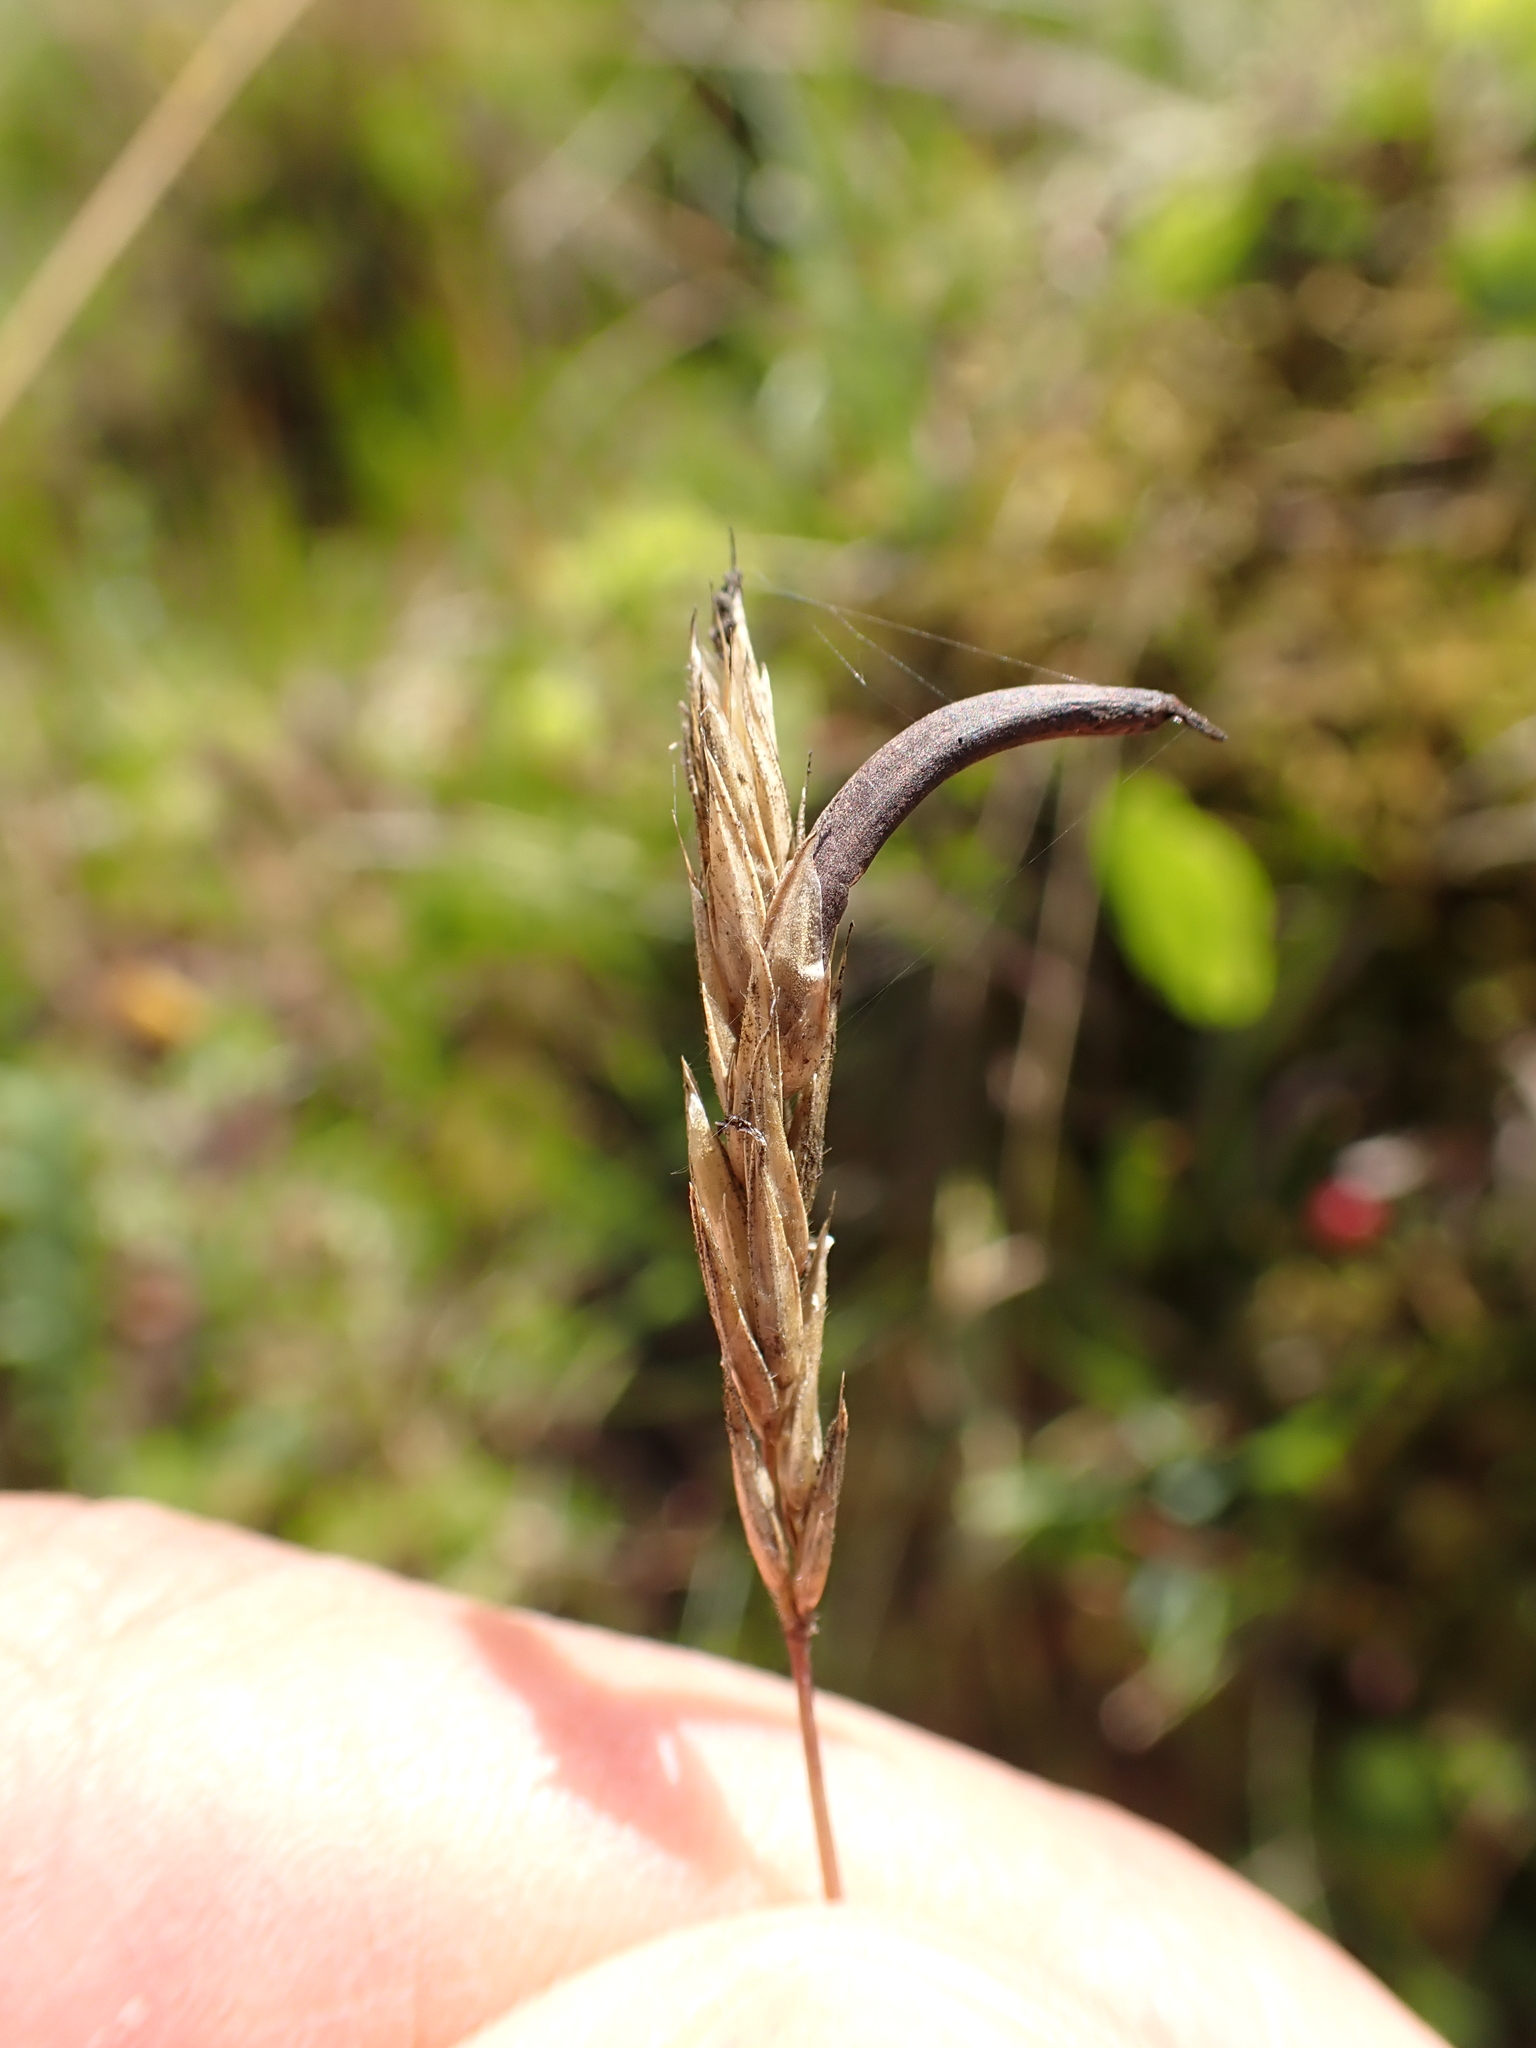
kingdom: Fungi
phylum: Ascomycota
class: Sordariomycetes
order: Hypocreales
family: Clavicipitaceae
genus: Claviceps
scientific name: Claviceps purpurea
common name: Rye ergot
